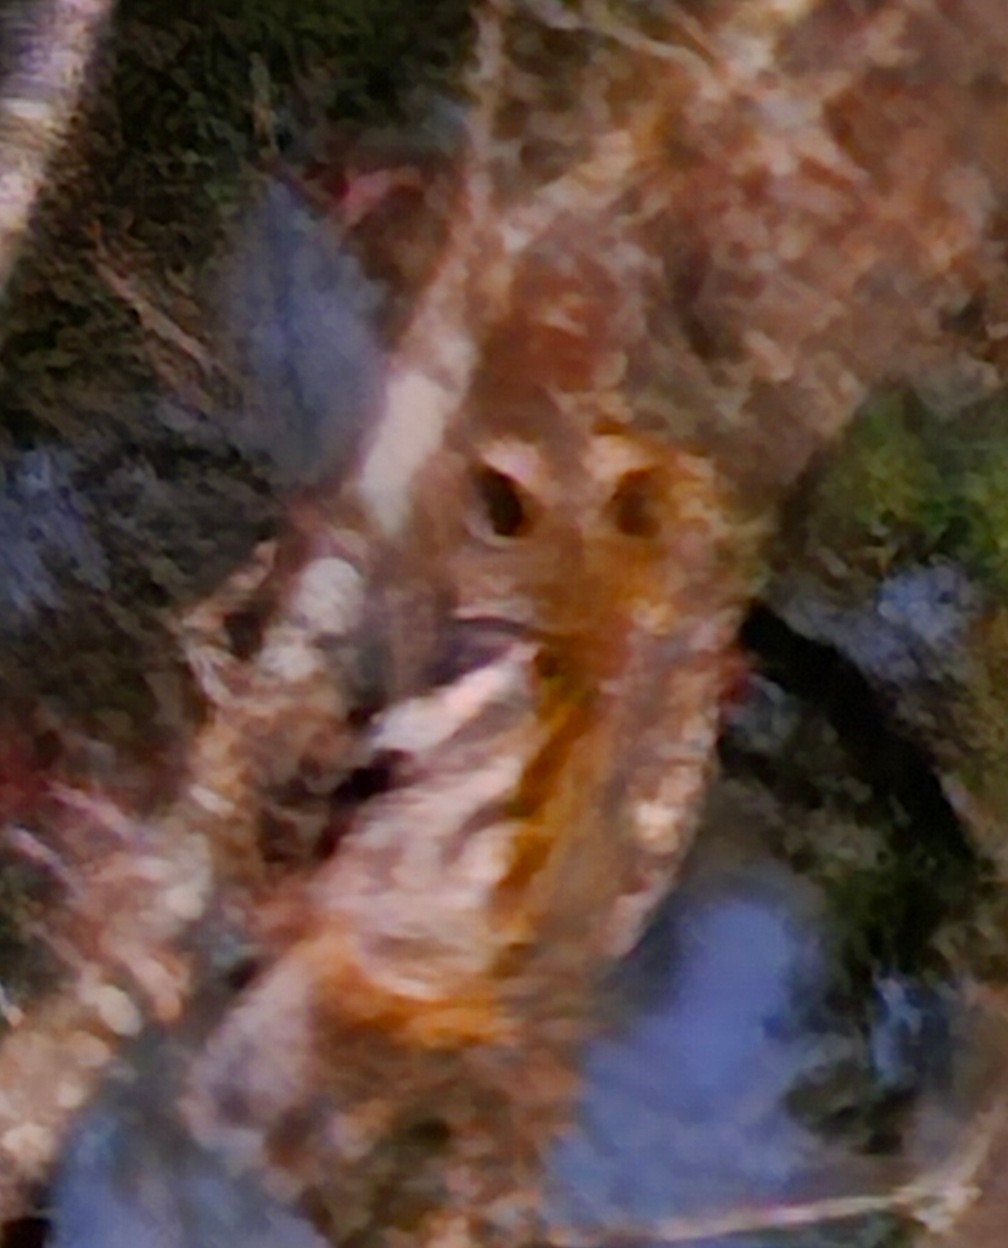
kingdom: Animalia
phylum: Chordata
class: Aves
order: Strigiformes
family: Strigidae
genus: Megascops
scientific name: Megascops asio
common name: Eastern screech-owl
